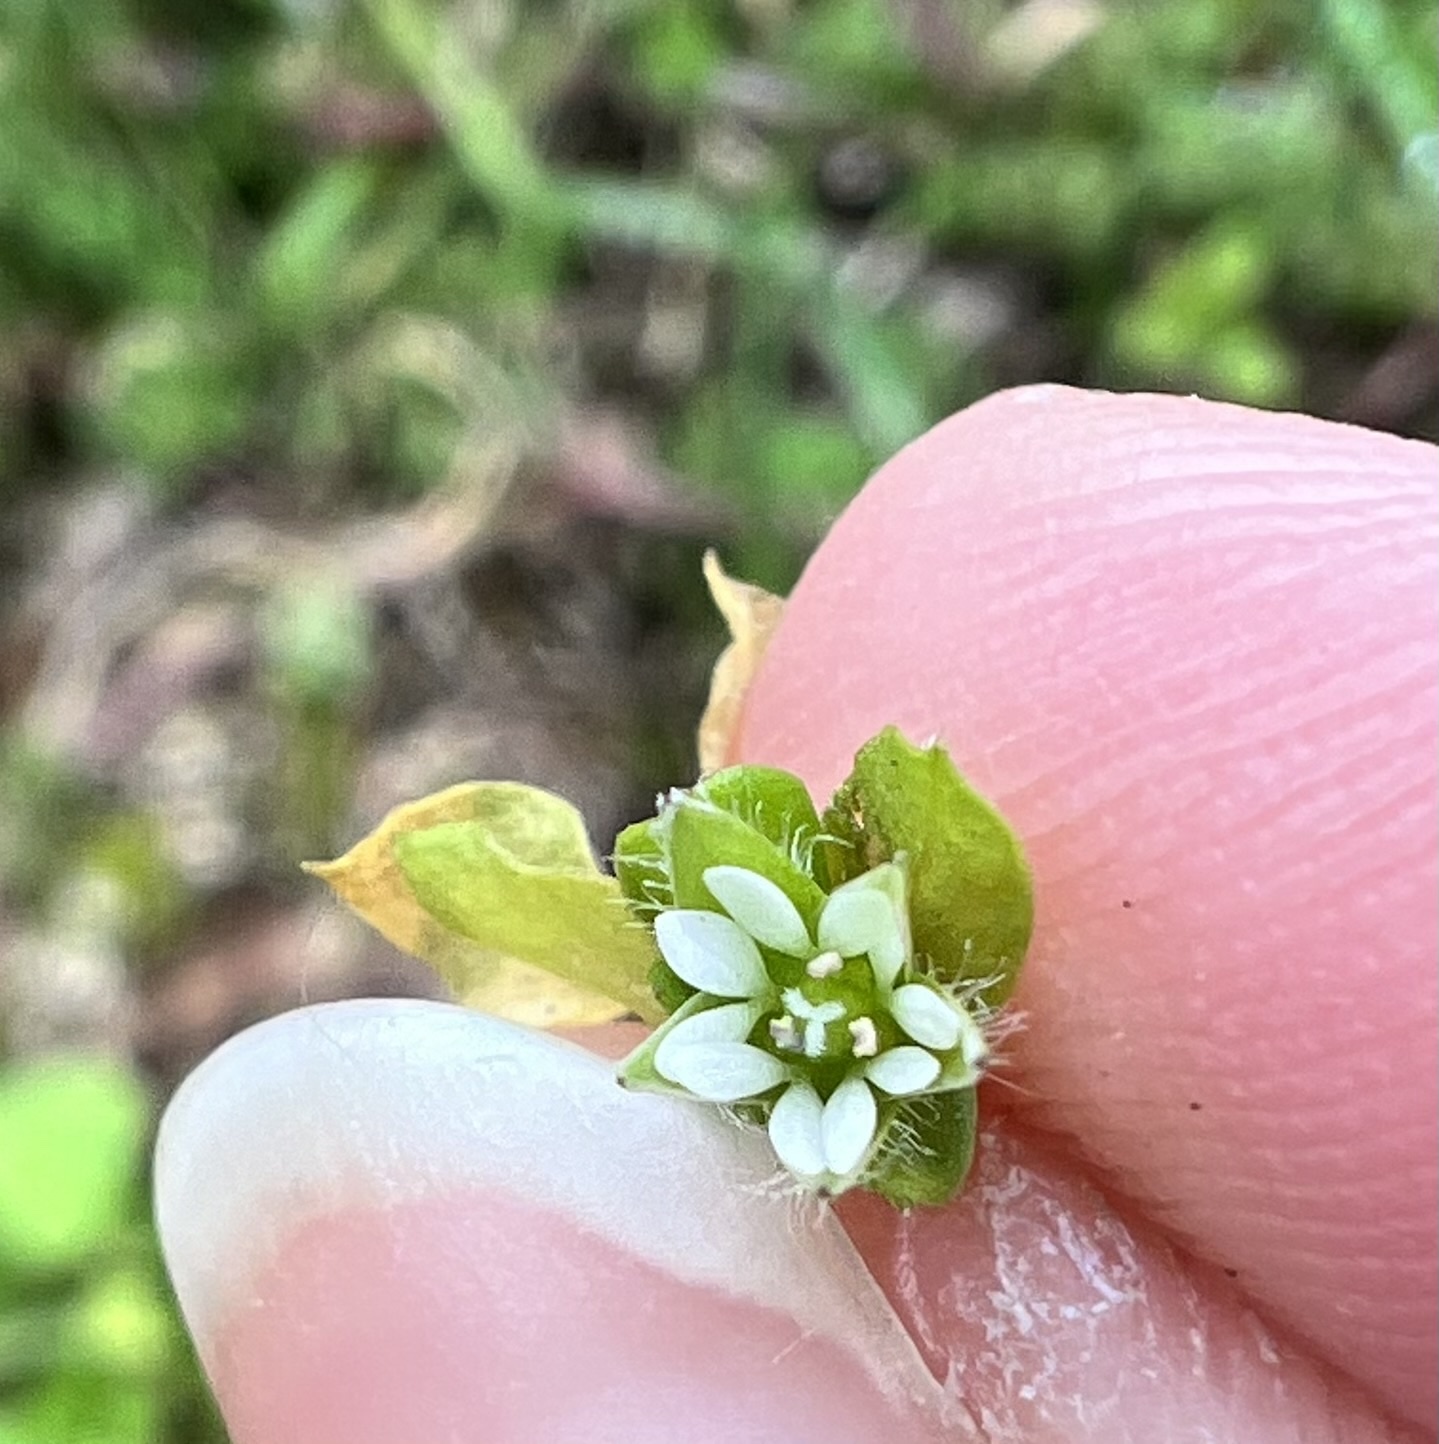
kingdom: Plantae
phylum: Tracheophyta
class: Magnoliopsida
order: Caryophyllales
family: Caryophyllaceae
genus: Stellaria
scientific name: Stellaria media
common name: Common chickweed
